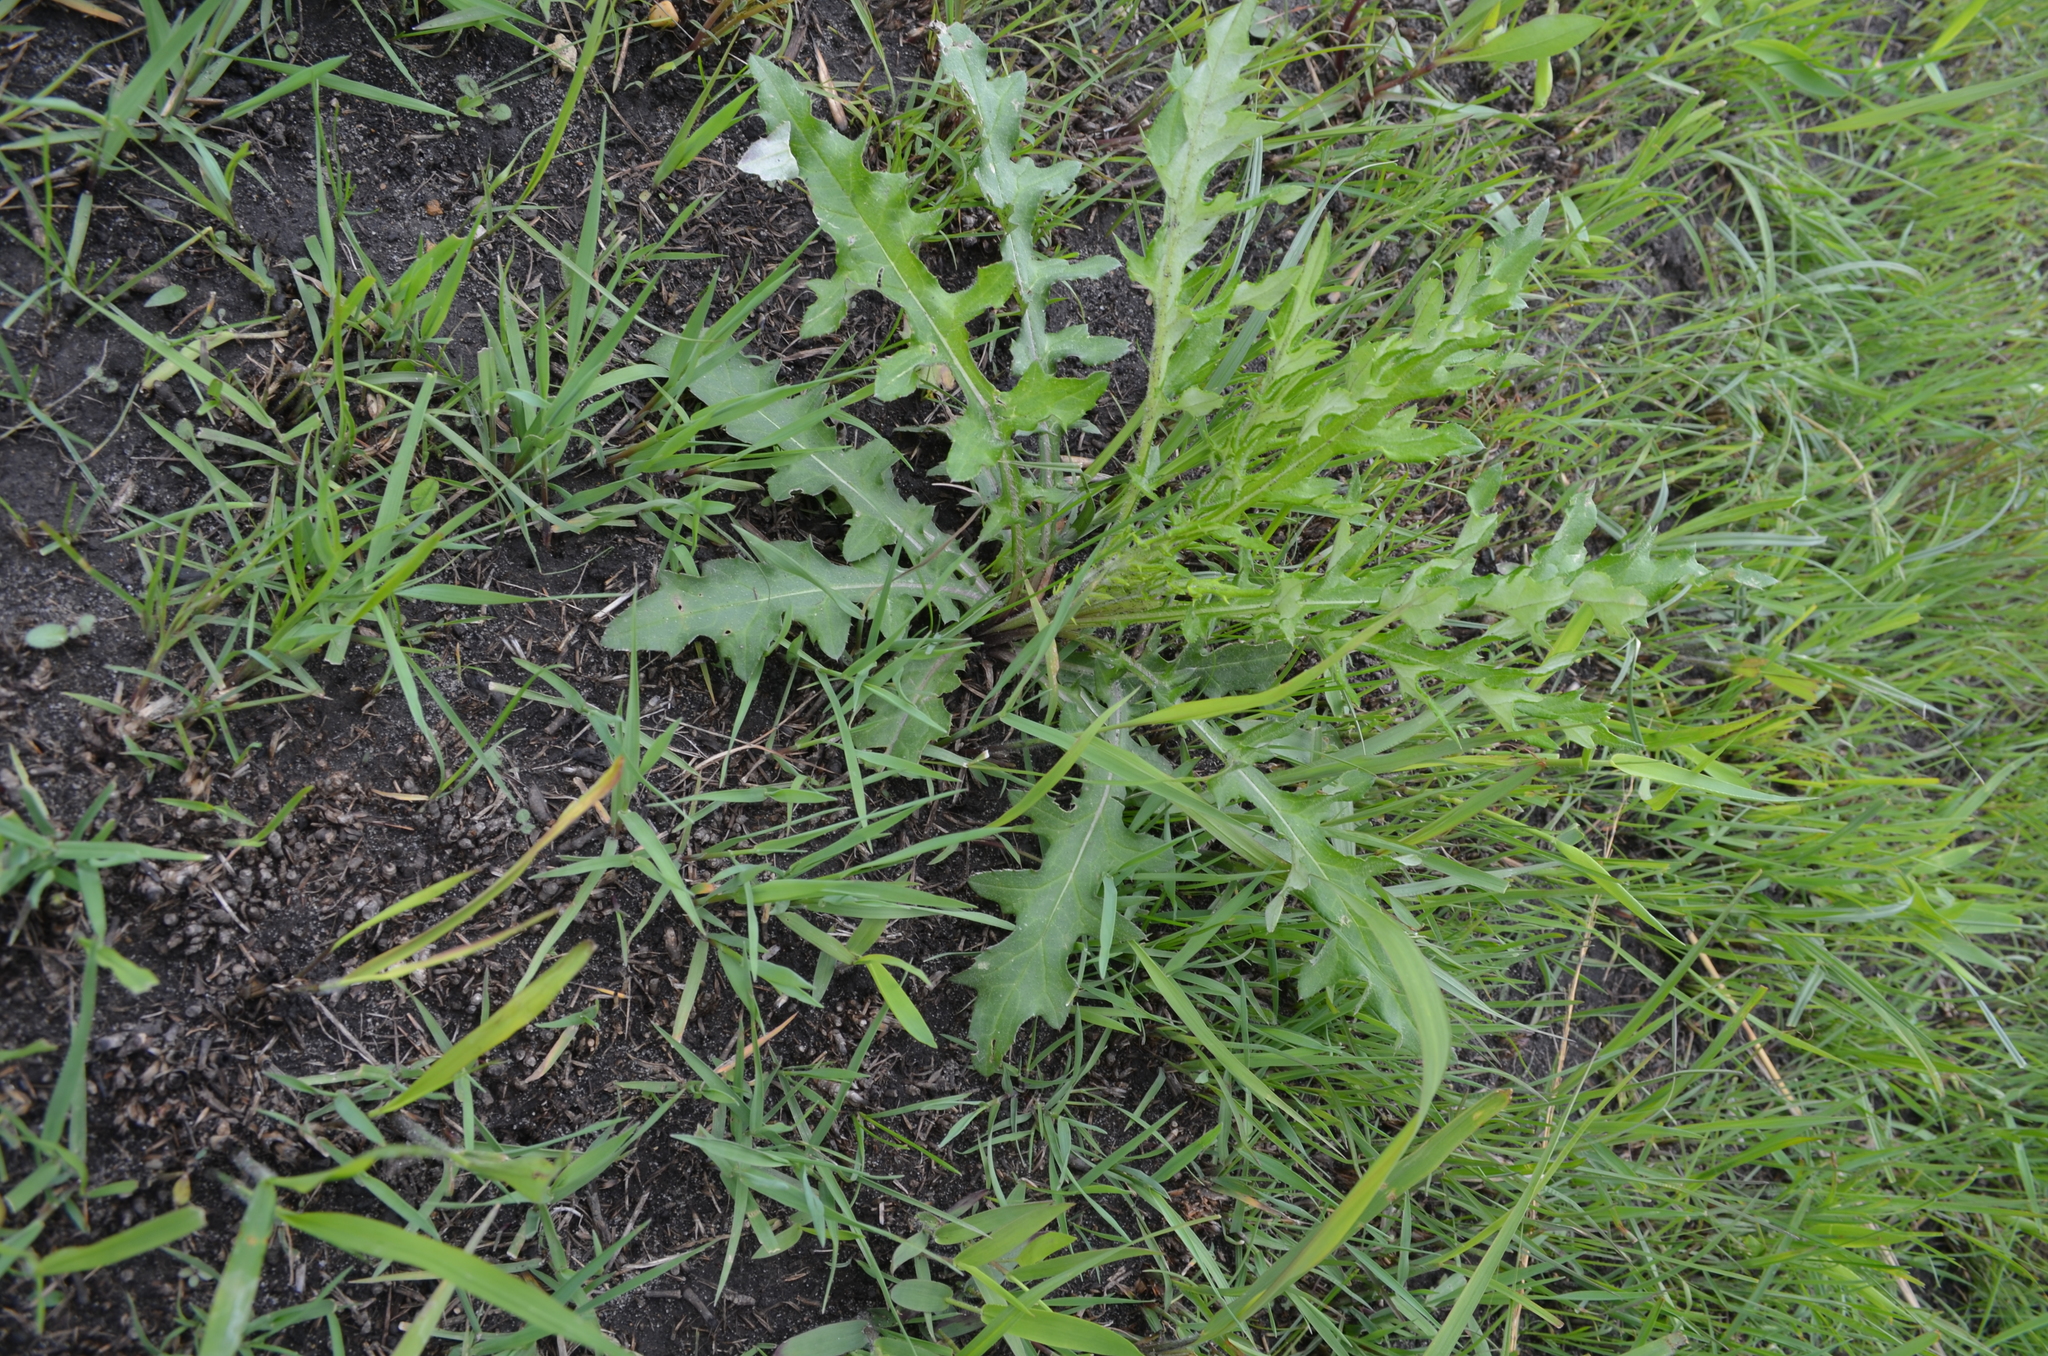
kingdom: Plantae
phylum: Tracheophyta
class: Magnoliopsida
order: Asterales
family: Asteraceae
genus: Cirsium
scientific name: Cirsium discolor
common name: Field thistle
